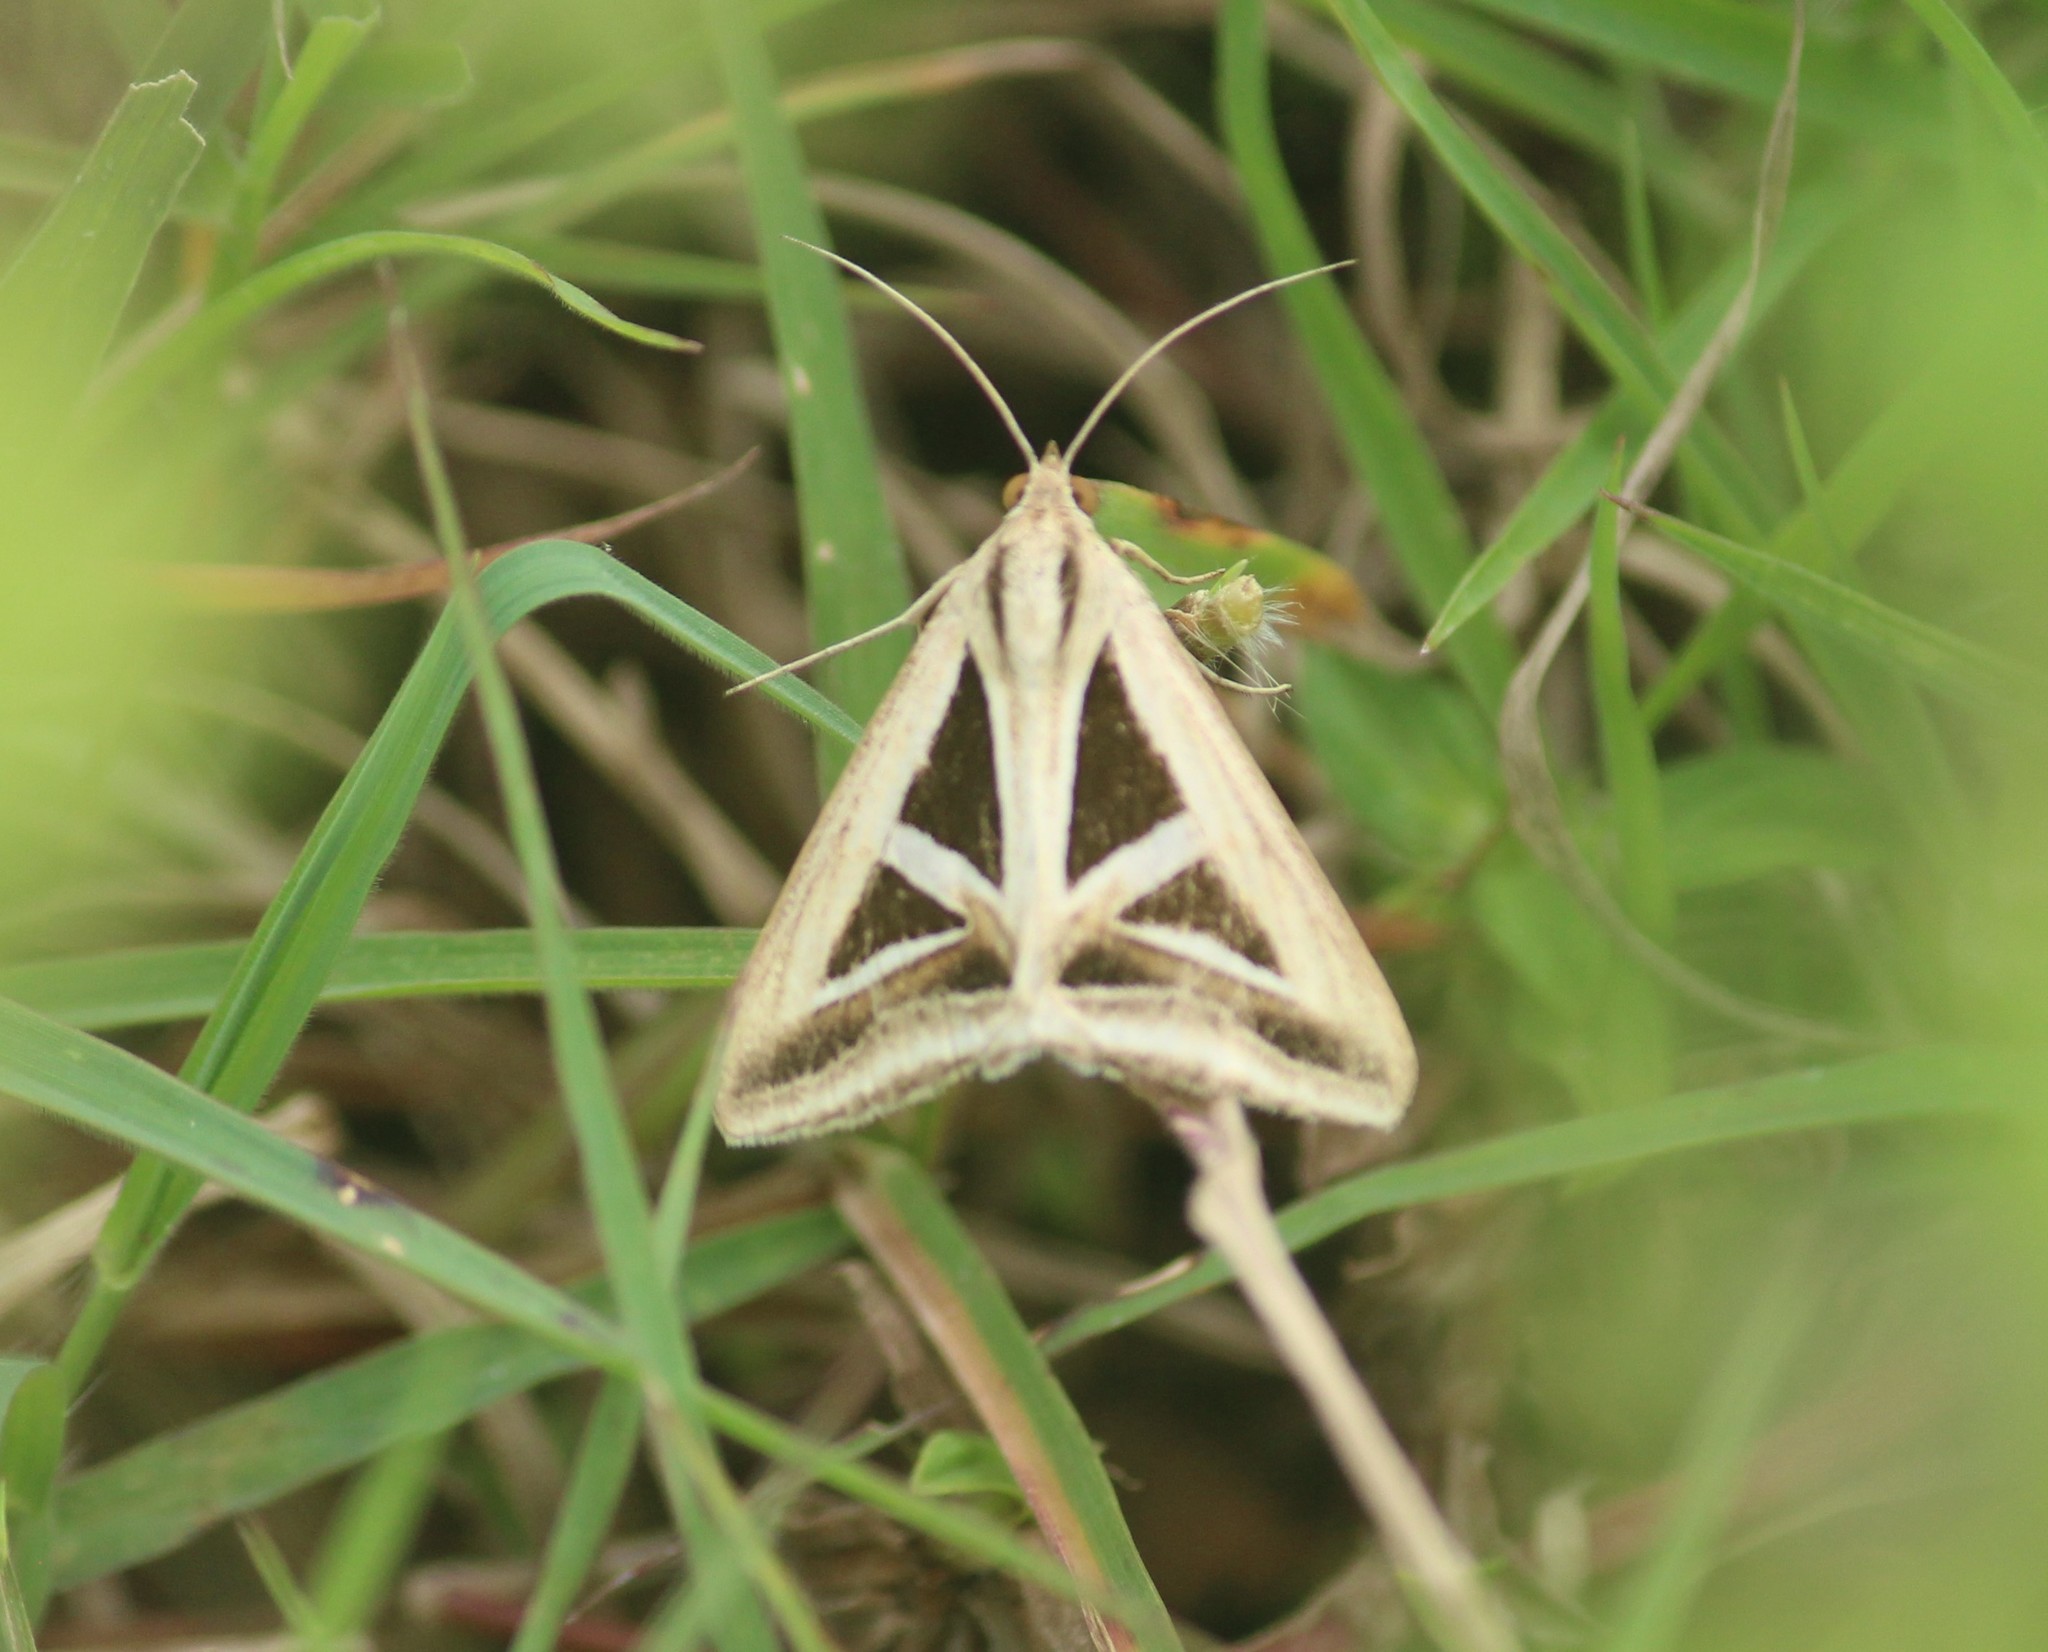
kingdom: Animalia
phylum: Arthropoda
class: Insecta
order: Lepidoptera
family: Erebidae
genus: Trigonodes
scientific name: Trigonodes hyppasia
